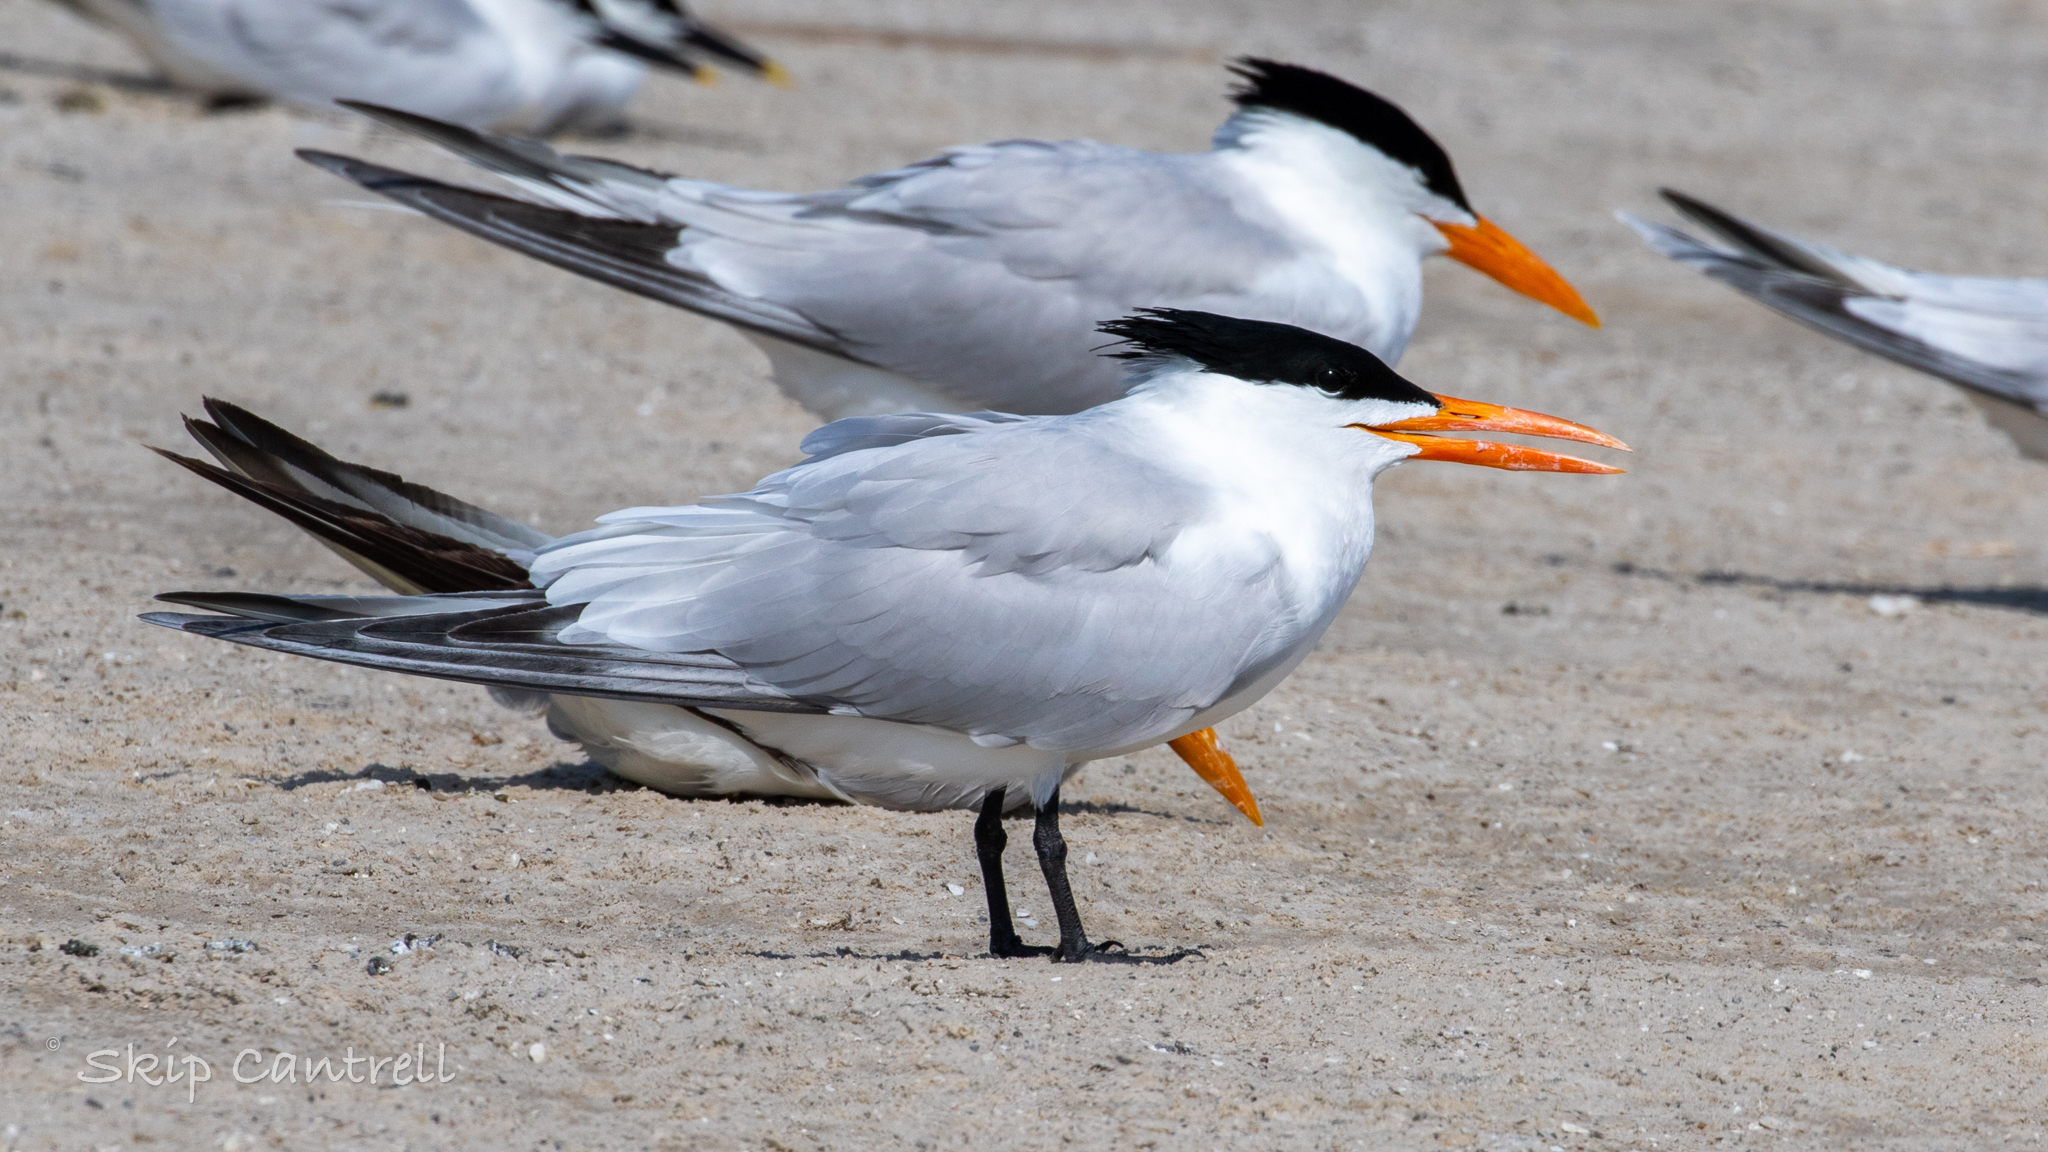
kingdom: Animalia
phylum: Chordata
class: Aves
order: Charadriiformes
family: Laridae
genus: Thalasseus
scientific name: Thalasseus maximus
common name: Royal tern
